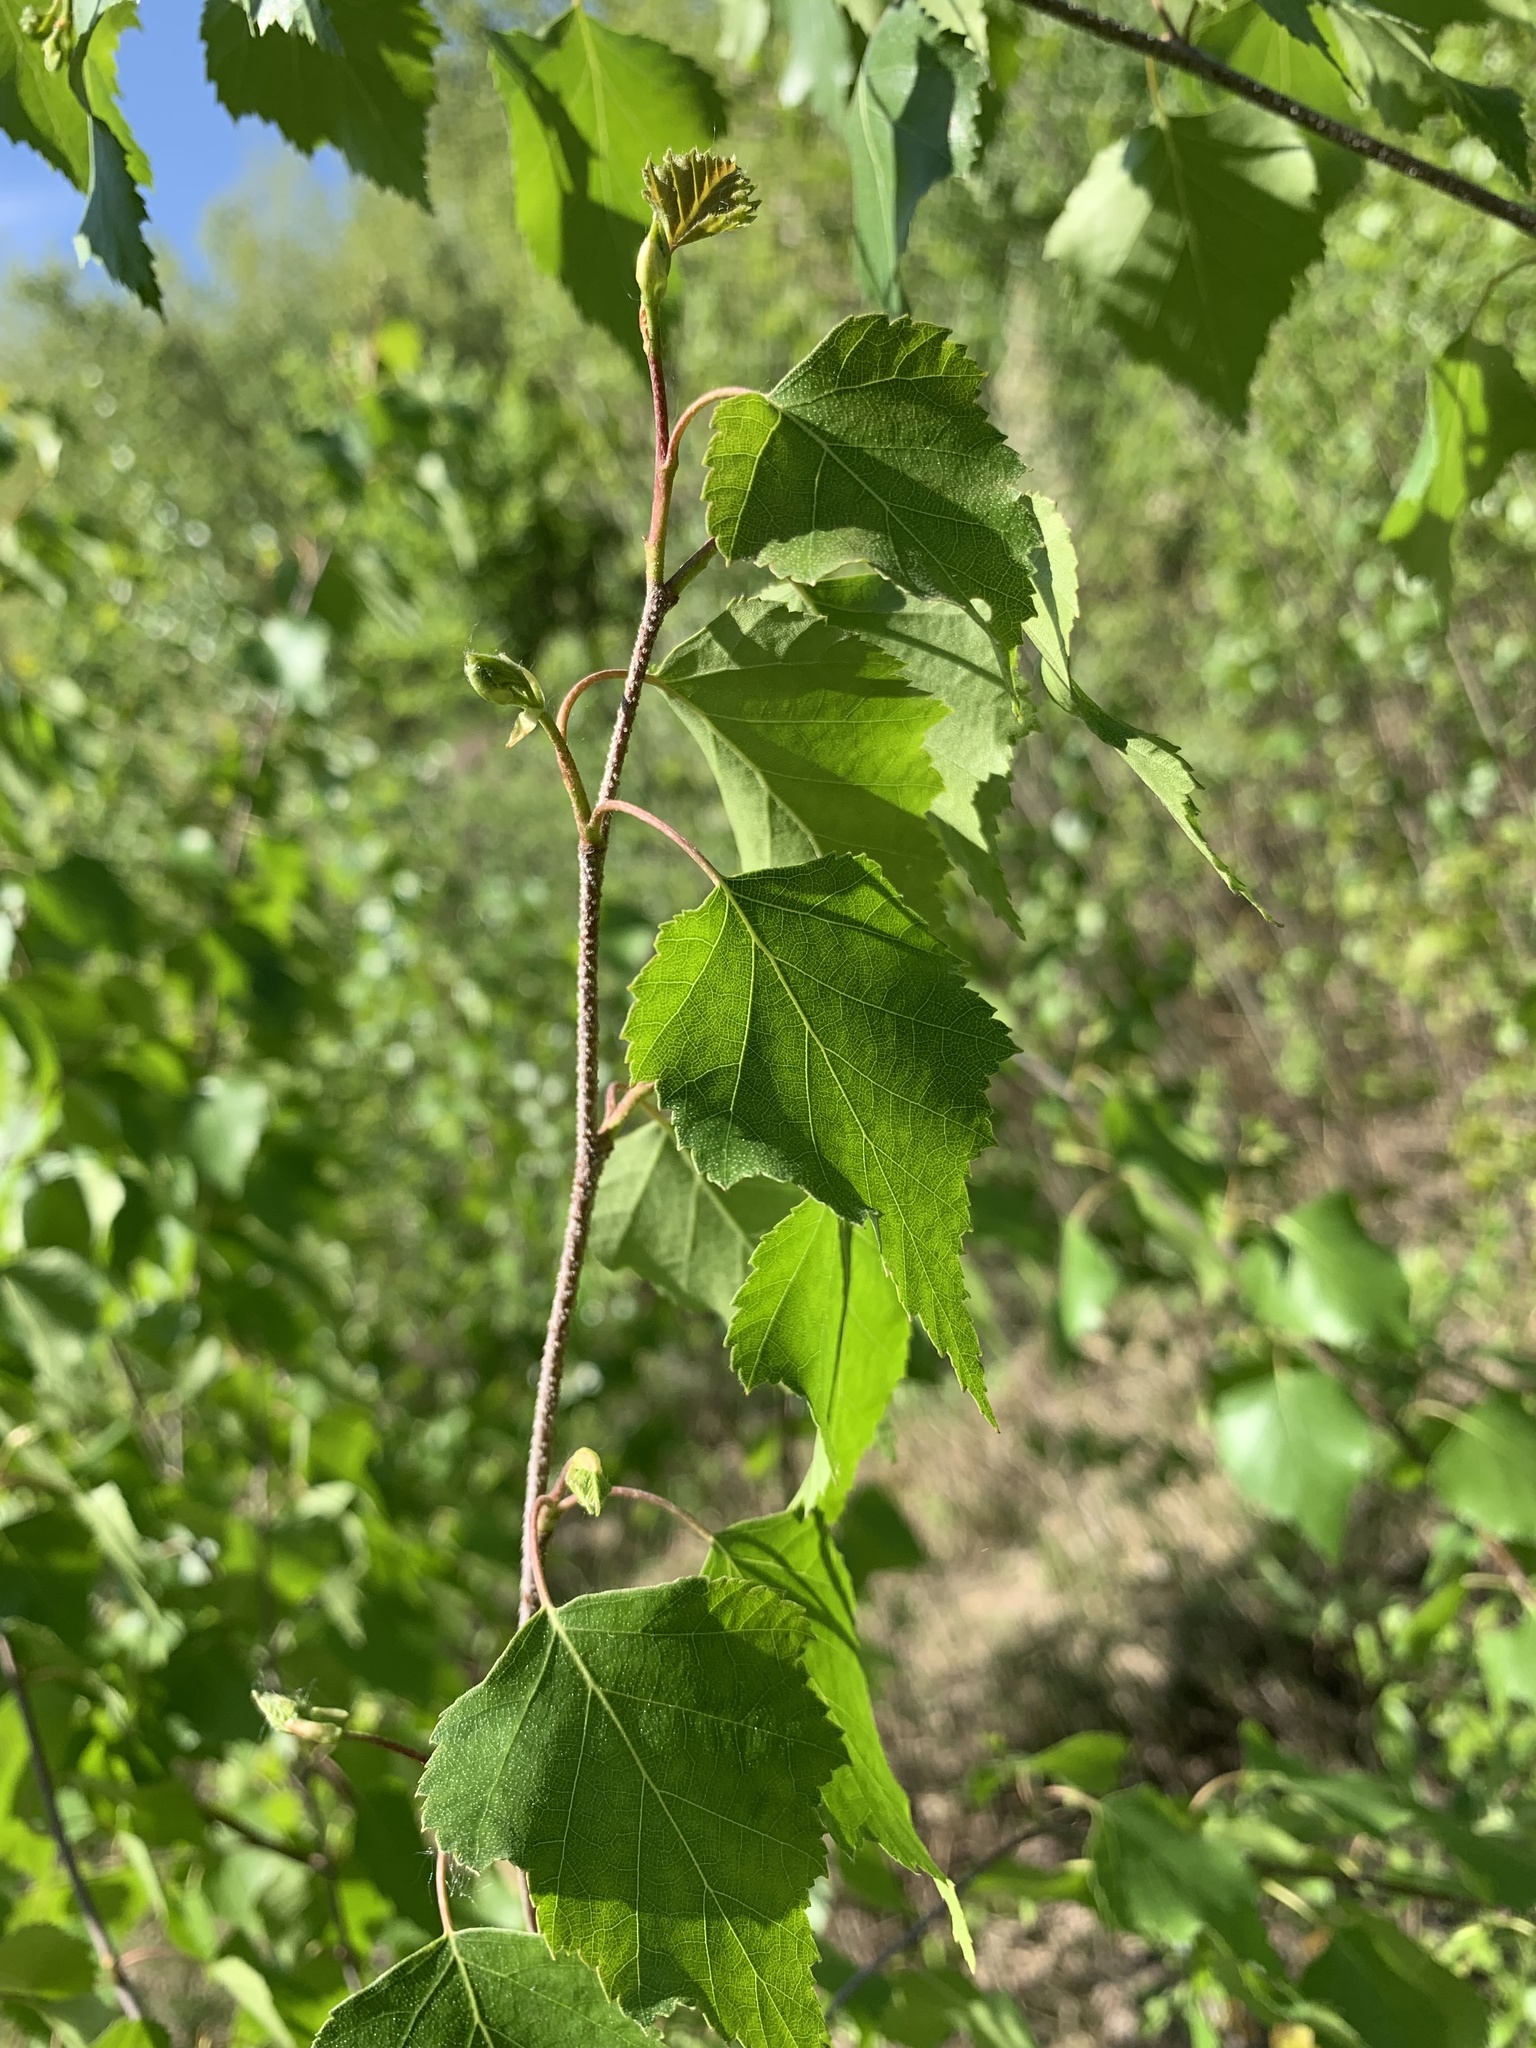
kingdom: Plantae
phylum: Tracheophyta
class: Magnoliopsida
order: Fagales
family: Betulaceae
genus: Betula
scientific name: Betula pendula
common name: Silver birch
